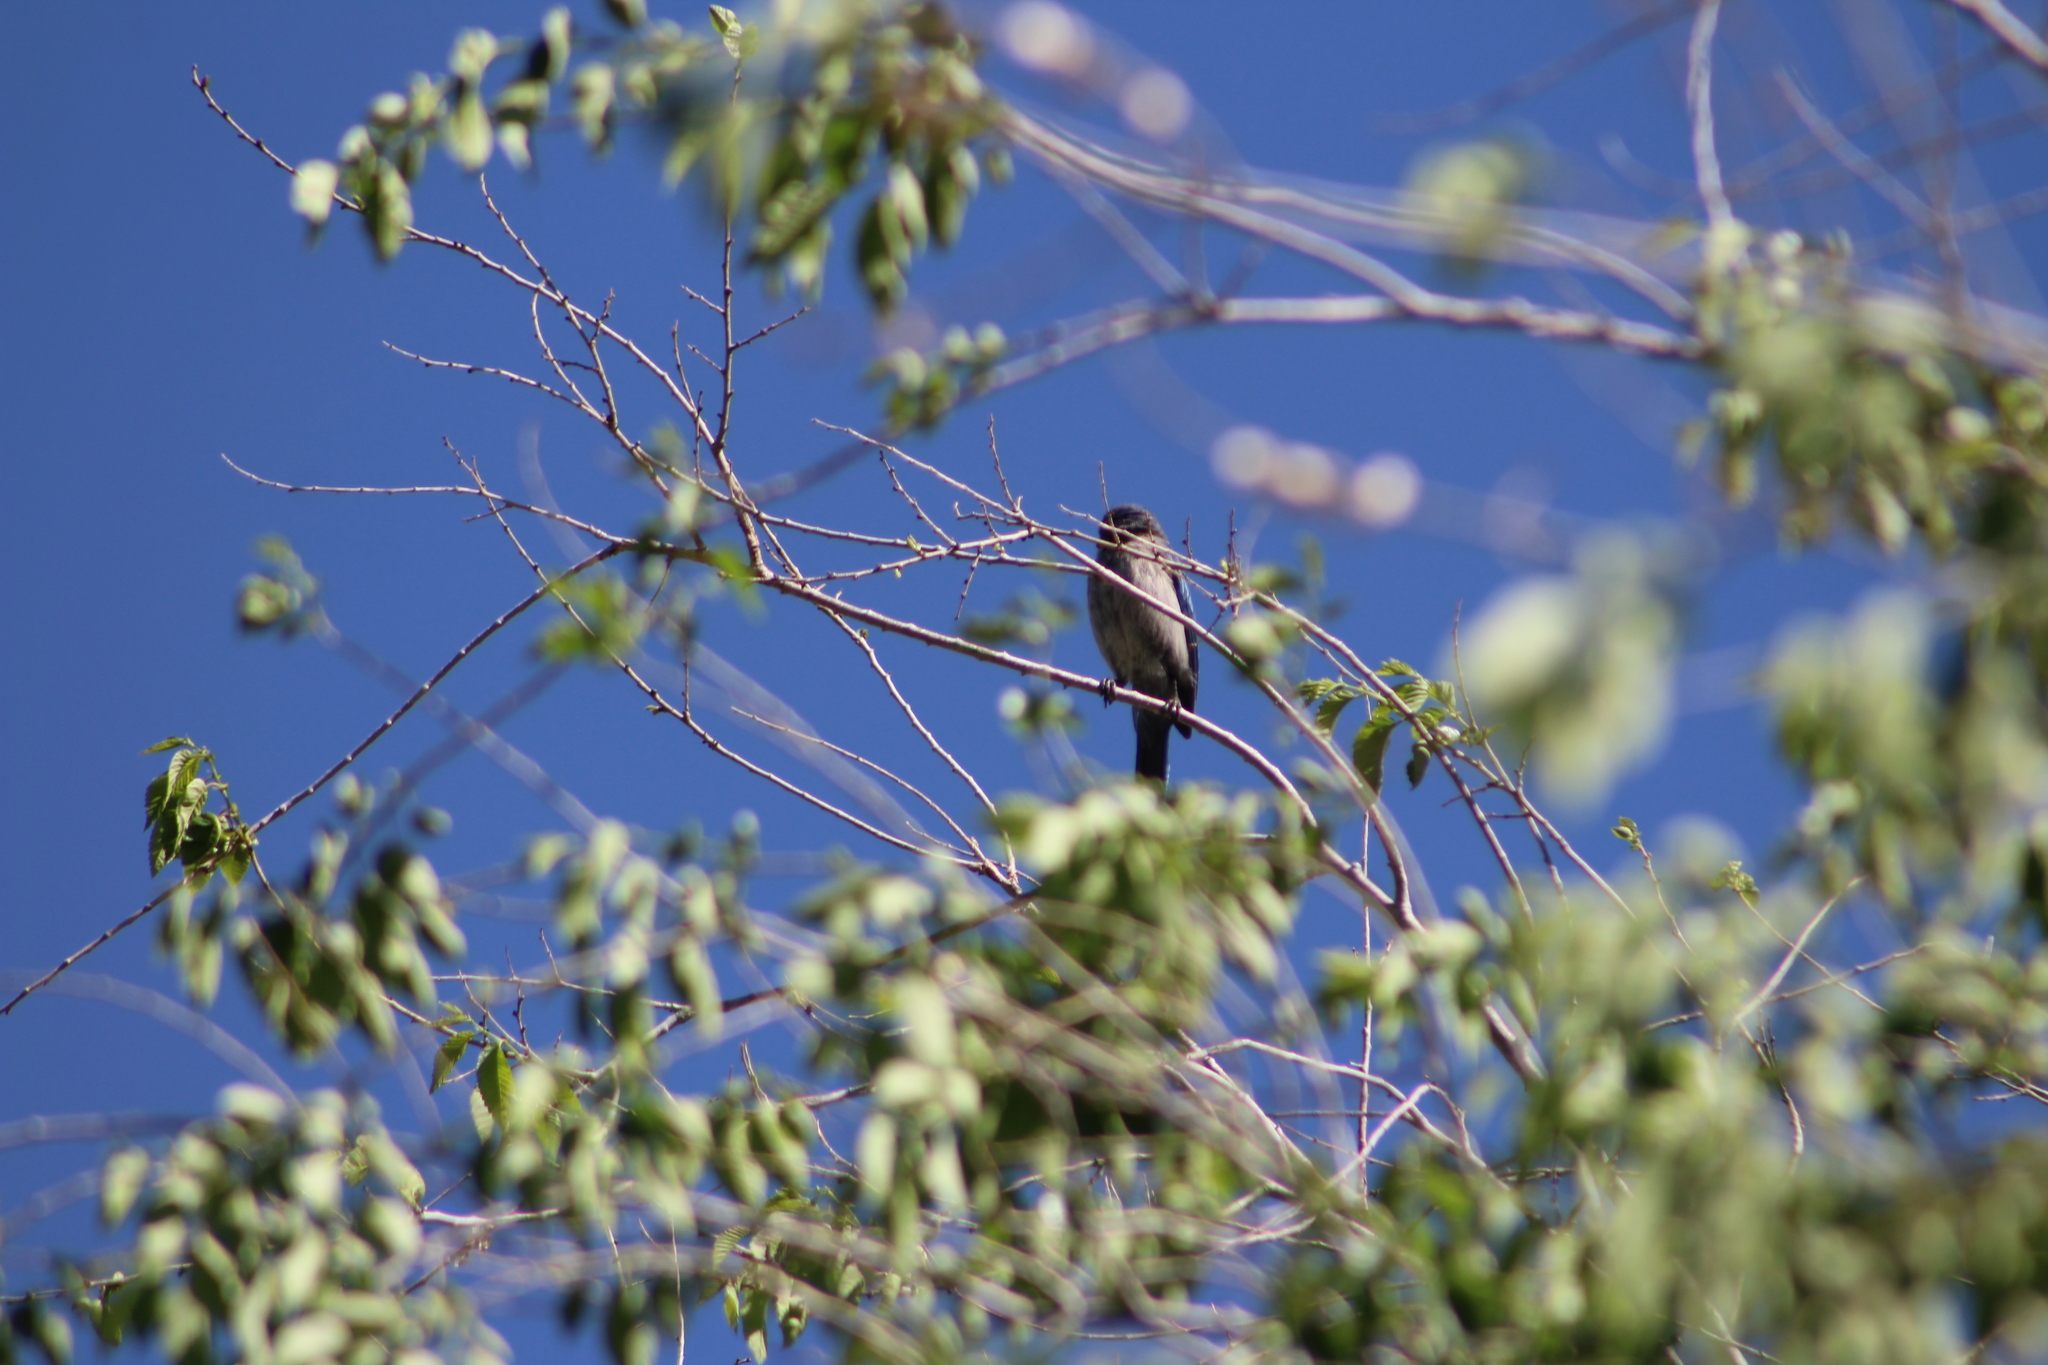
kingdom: Animalia
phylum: Chordata
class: Aves
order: Passeriformes
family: Corvidae
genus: Aphelocoma
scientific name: Aphelocoma woodhouseii
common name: Woodhouse's scrub-jay
